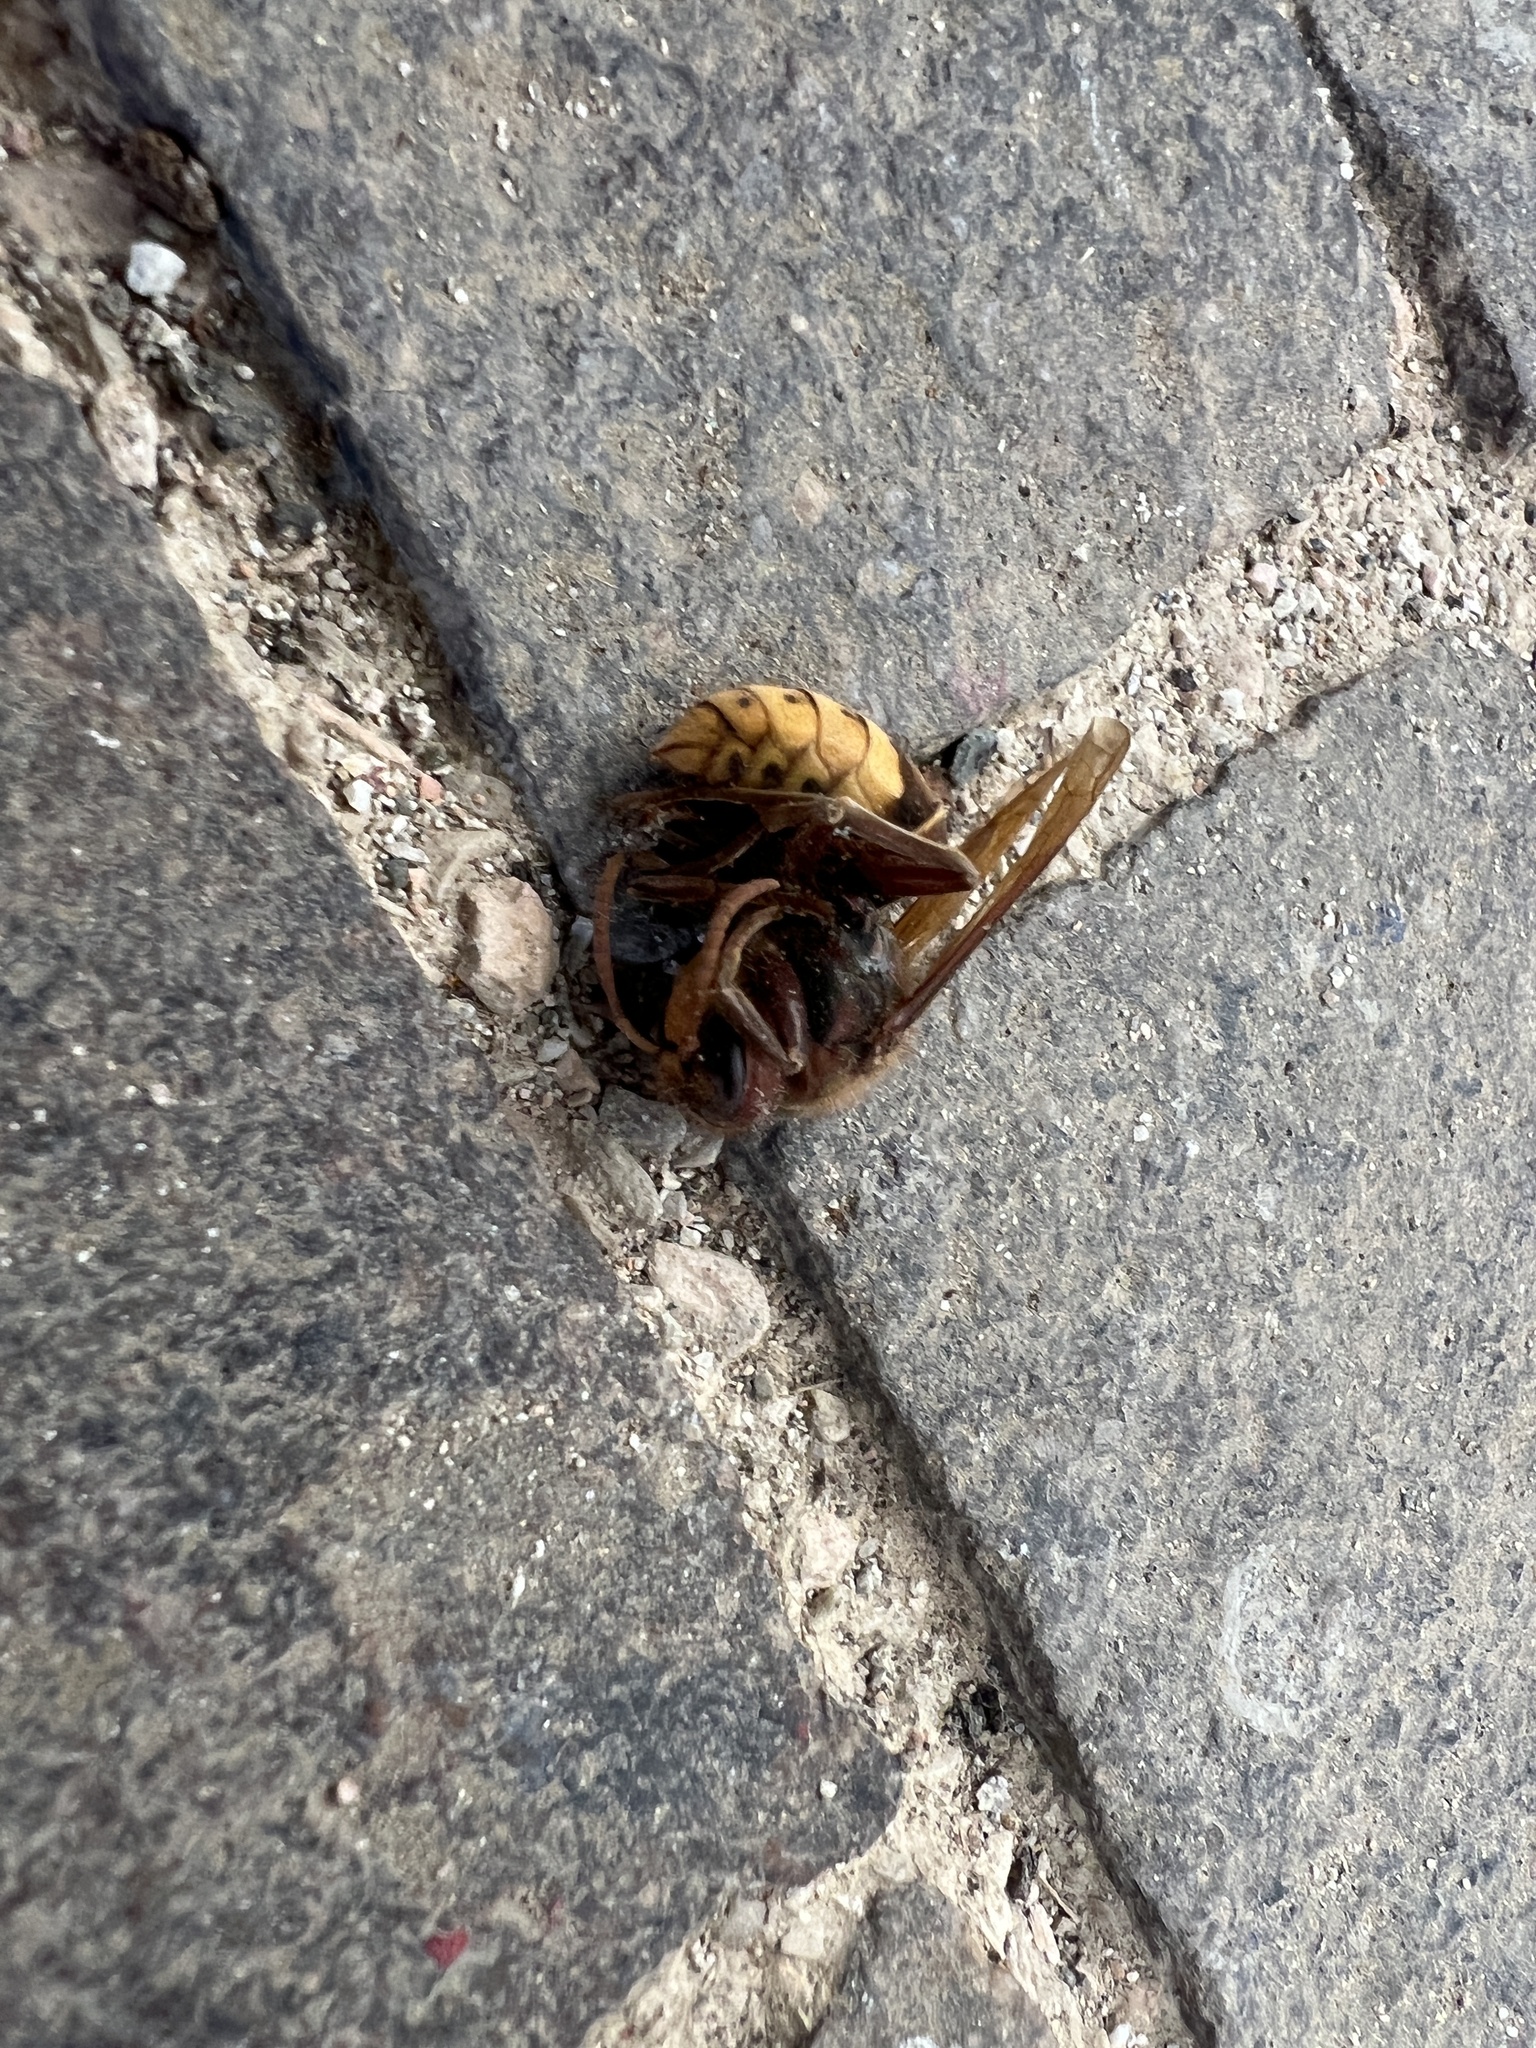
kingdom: Animalia
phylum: Arthropoda
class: Insecta
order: Hymenoptera
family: Vespidae
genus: Vespa
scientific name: Vespa crabro
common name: Hornet
